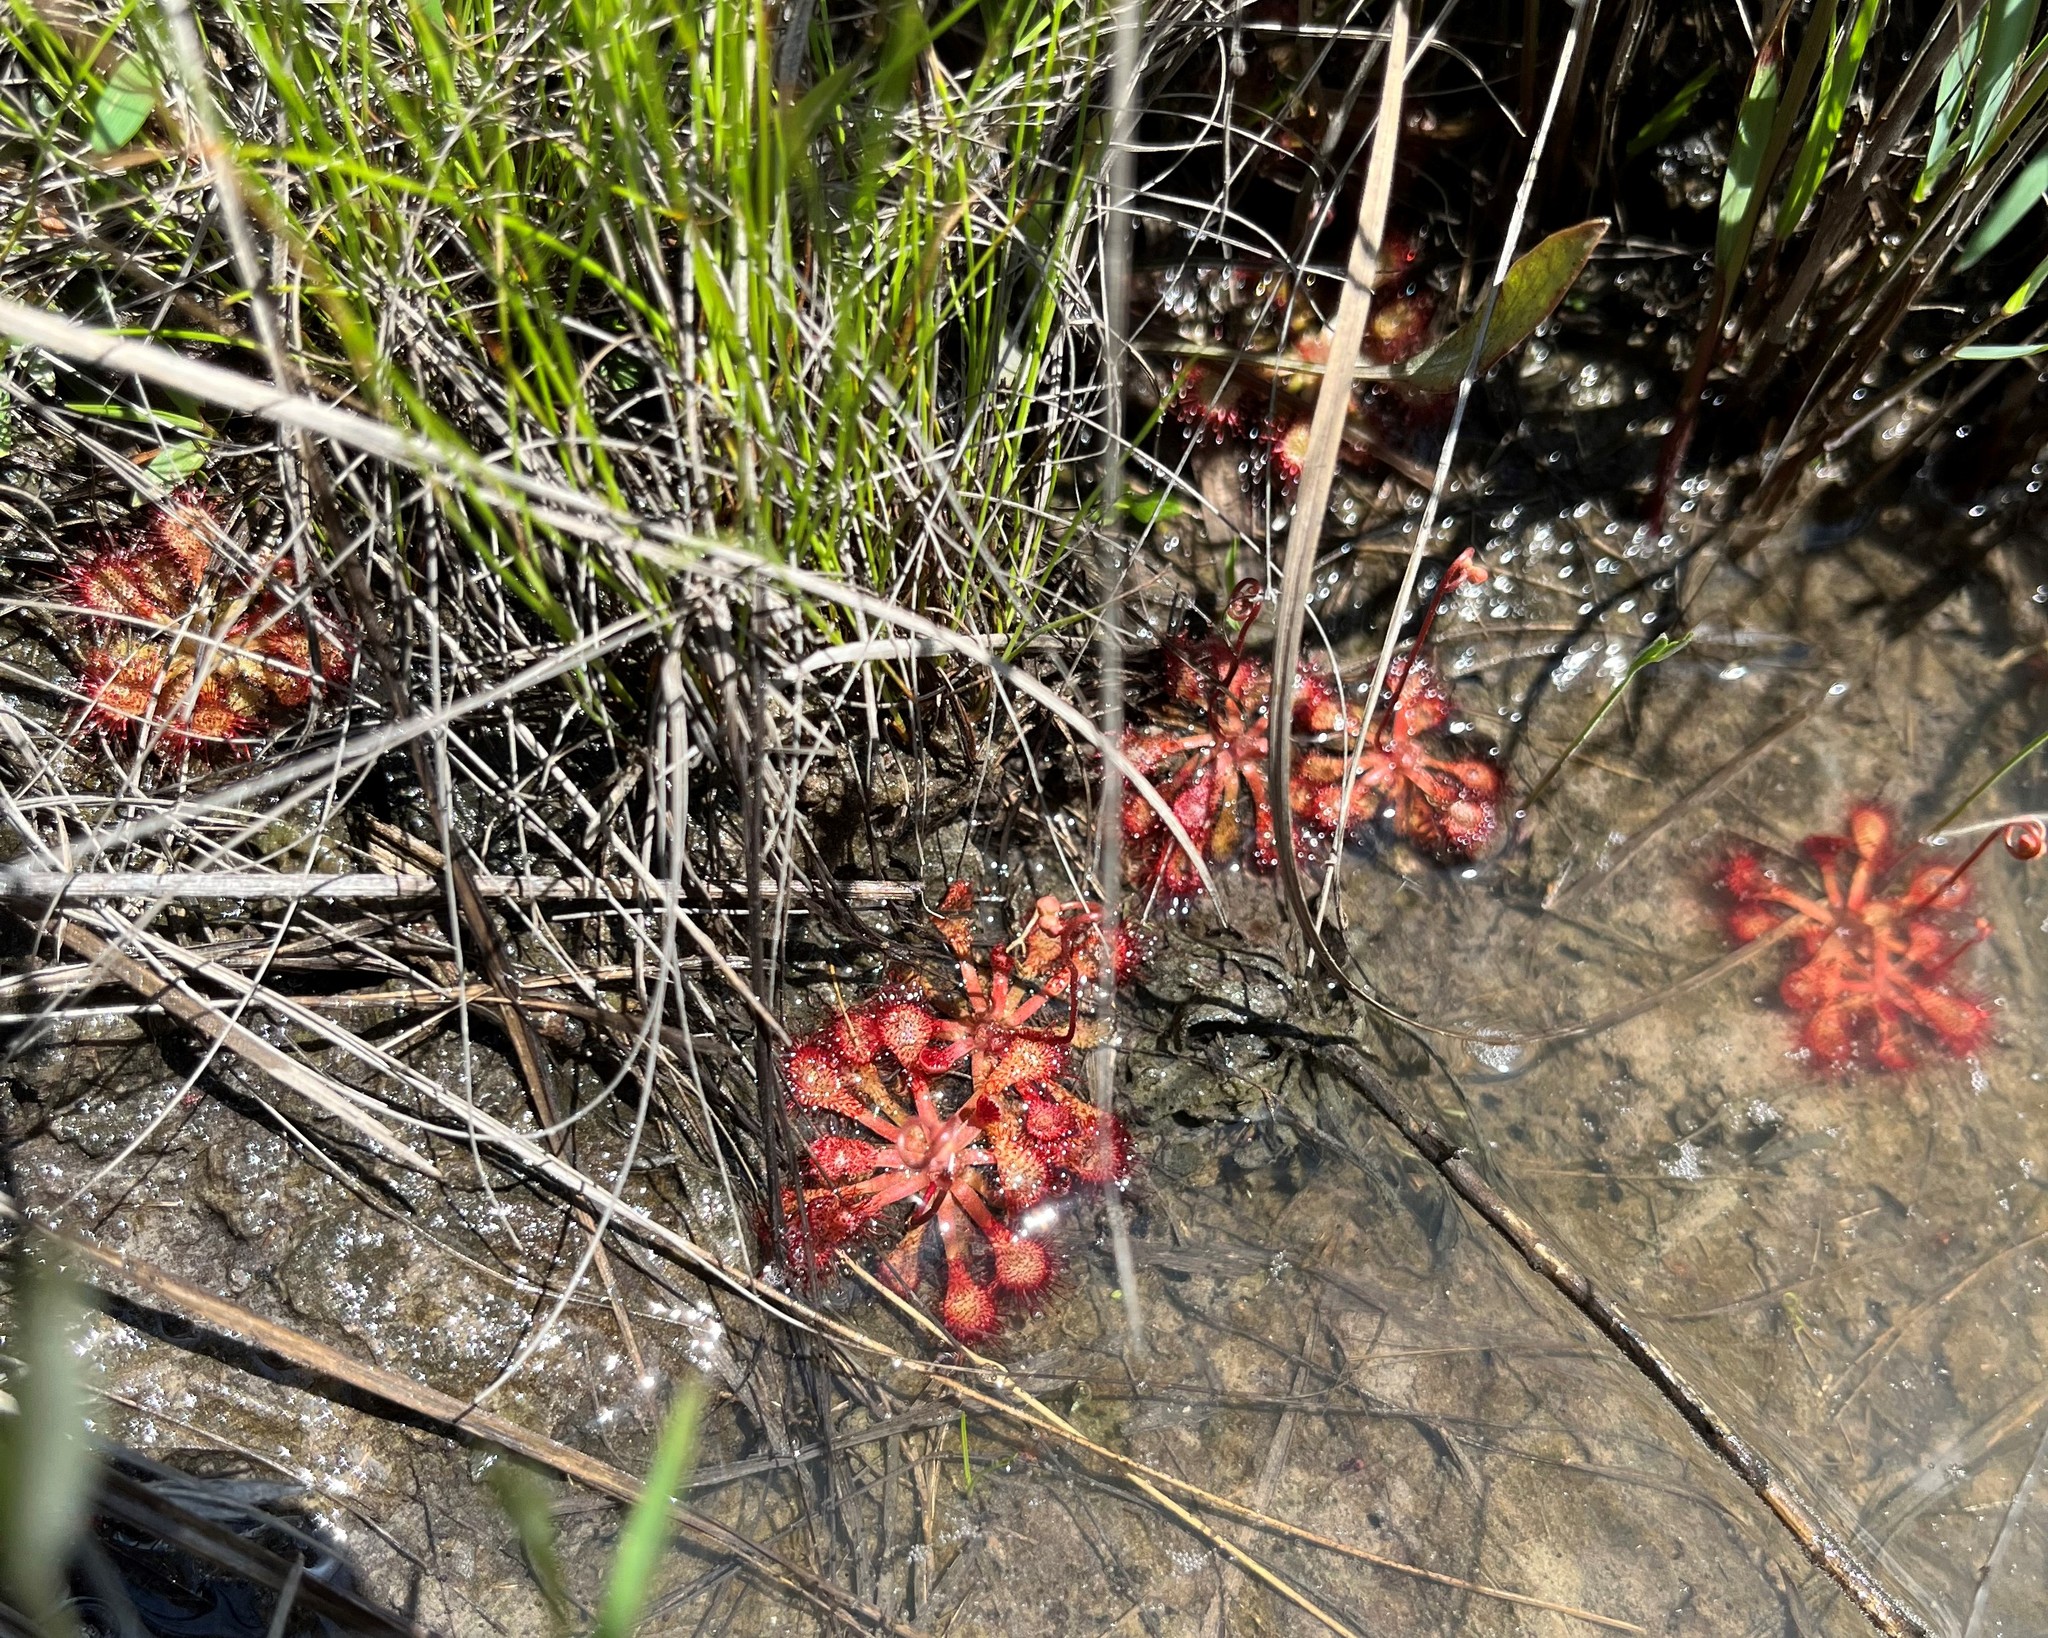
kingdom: Plantae
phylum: Tracheophyta
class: Magnoliopsida
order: Caryophyllales
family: Droseraceae
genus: Drosera
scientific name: Drosera capillaris
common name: Pink sundew
